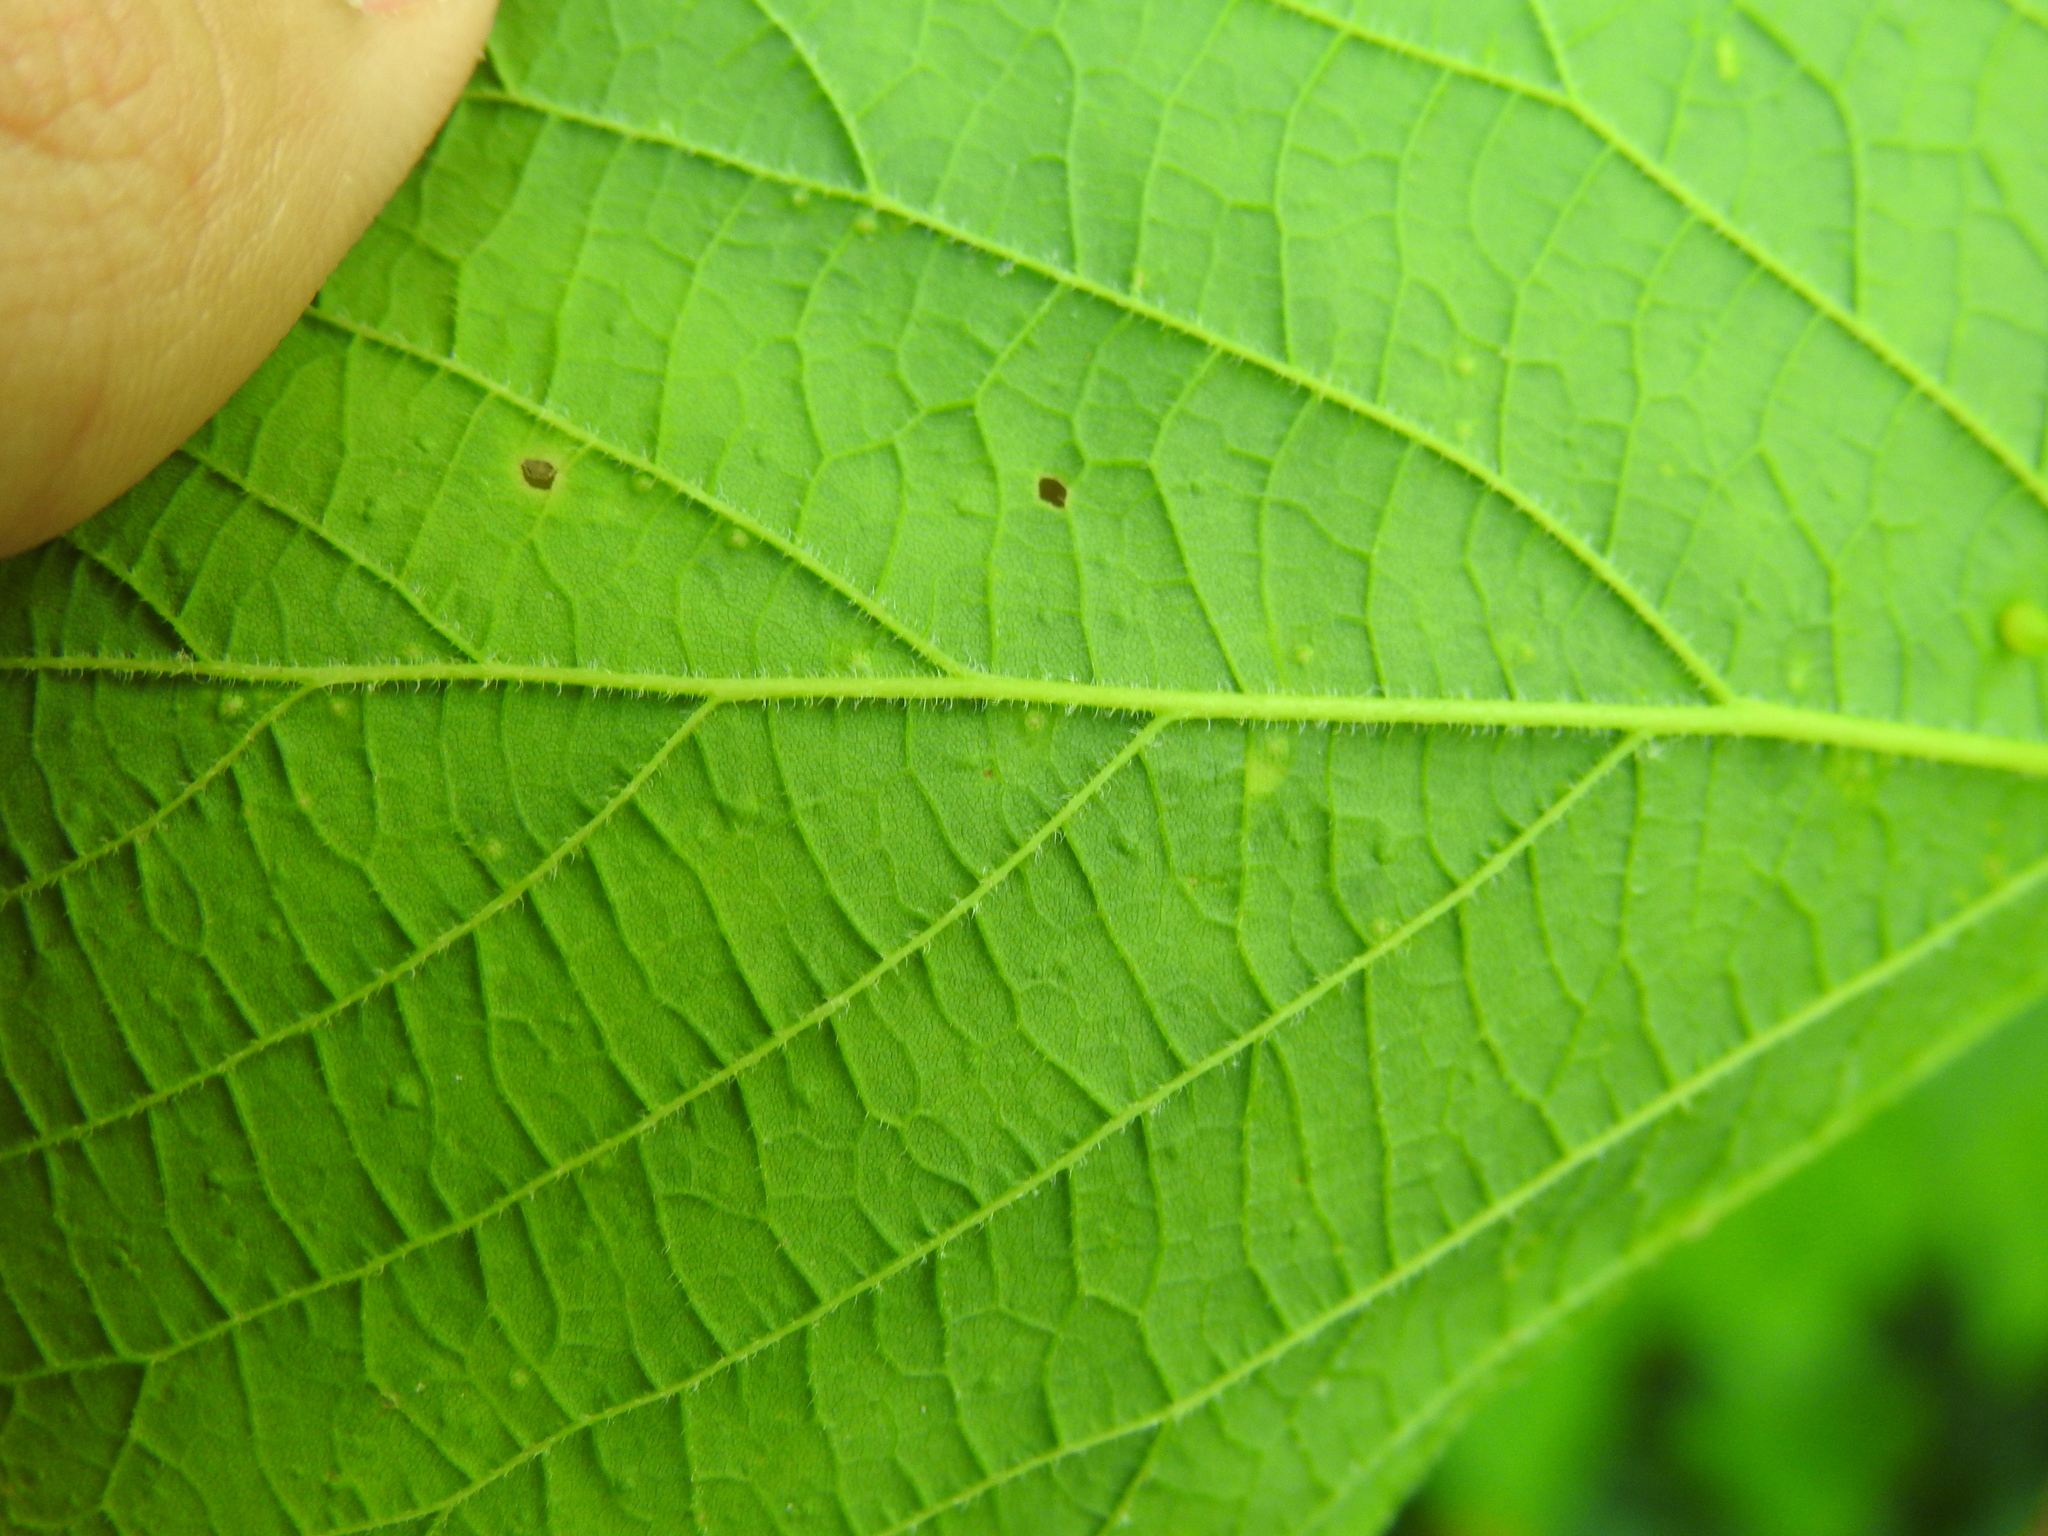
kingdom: Animalia
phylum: Arthropoda
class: Insecta
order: Hemiptera
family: Aphalaridae
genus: Pachypsylla
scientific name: Pachypsylla celtidisvesicula
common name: Hackberry blister gall psyllid
